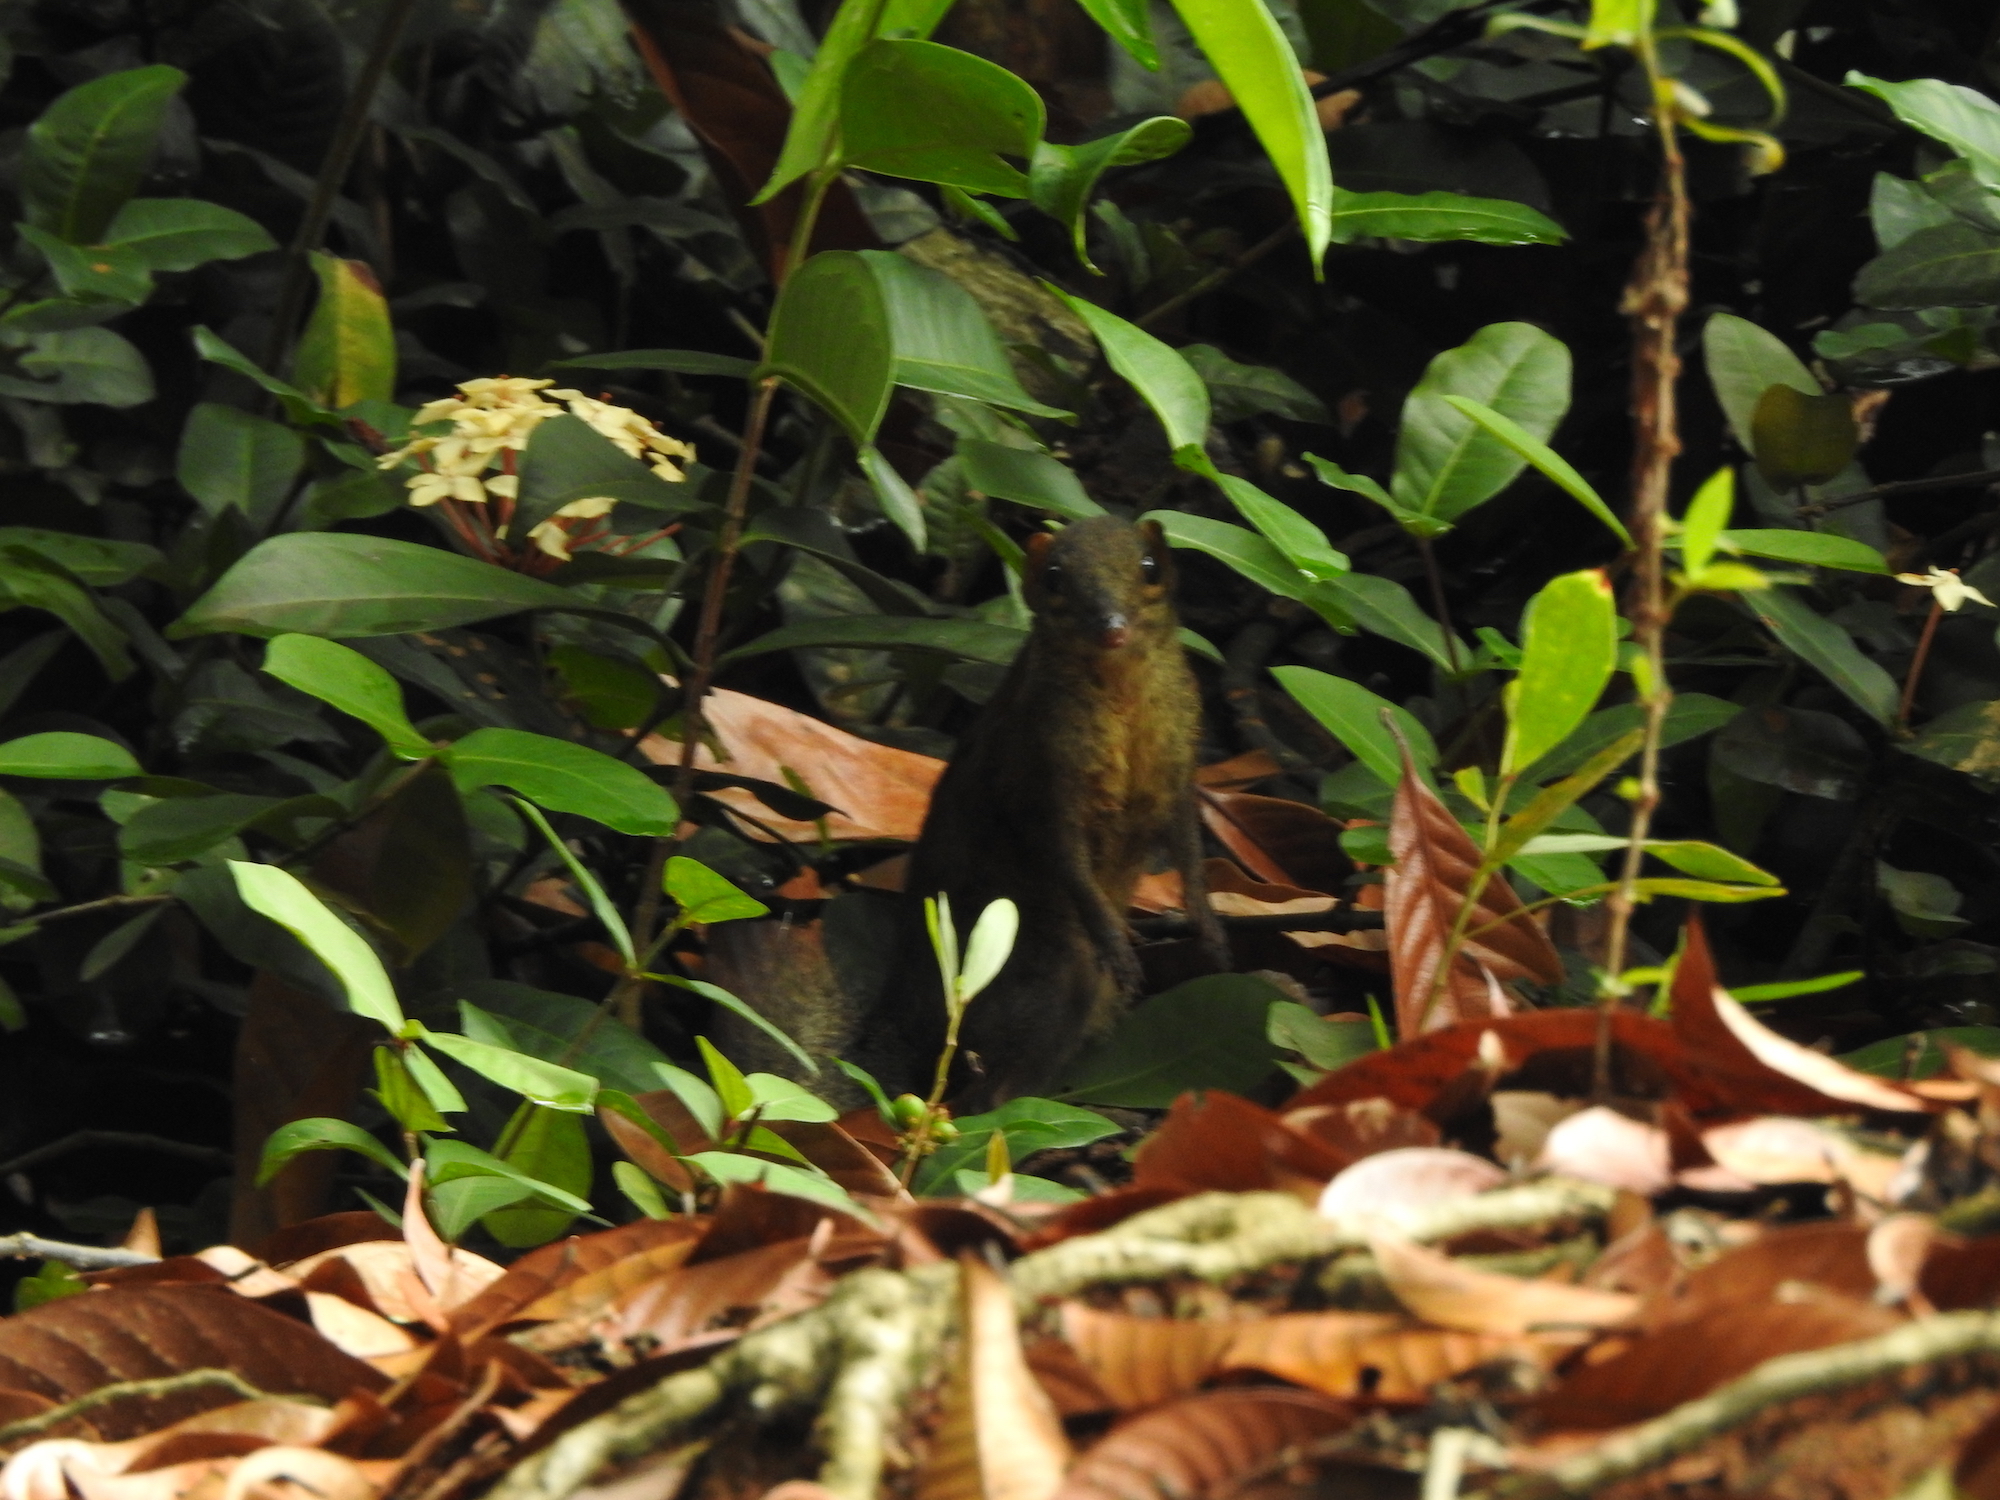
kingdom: Animalia
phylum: Chordata
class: Mammalia
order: Scandentia
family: Tupaiidae
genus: Tupaia
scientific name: Tupaia glis
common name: Common treeshrew
